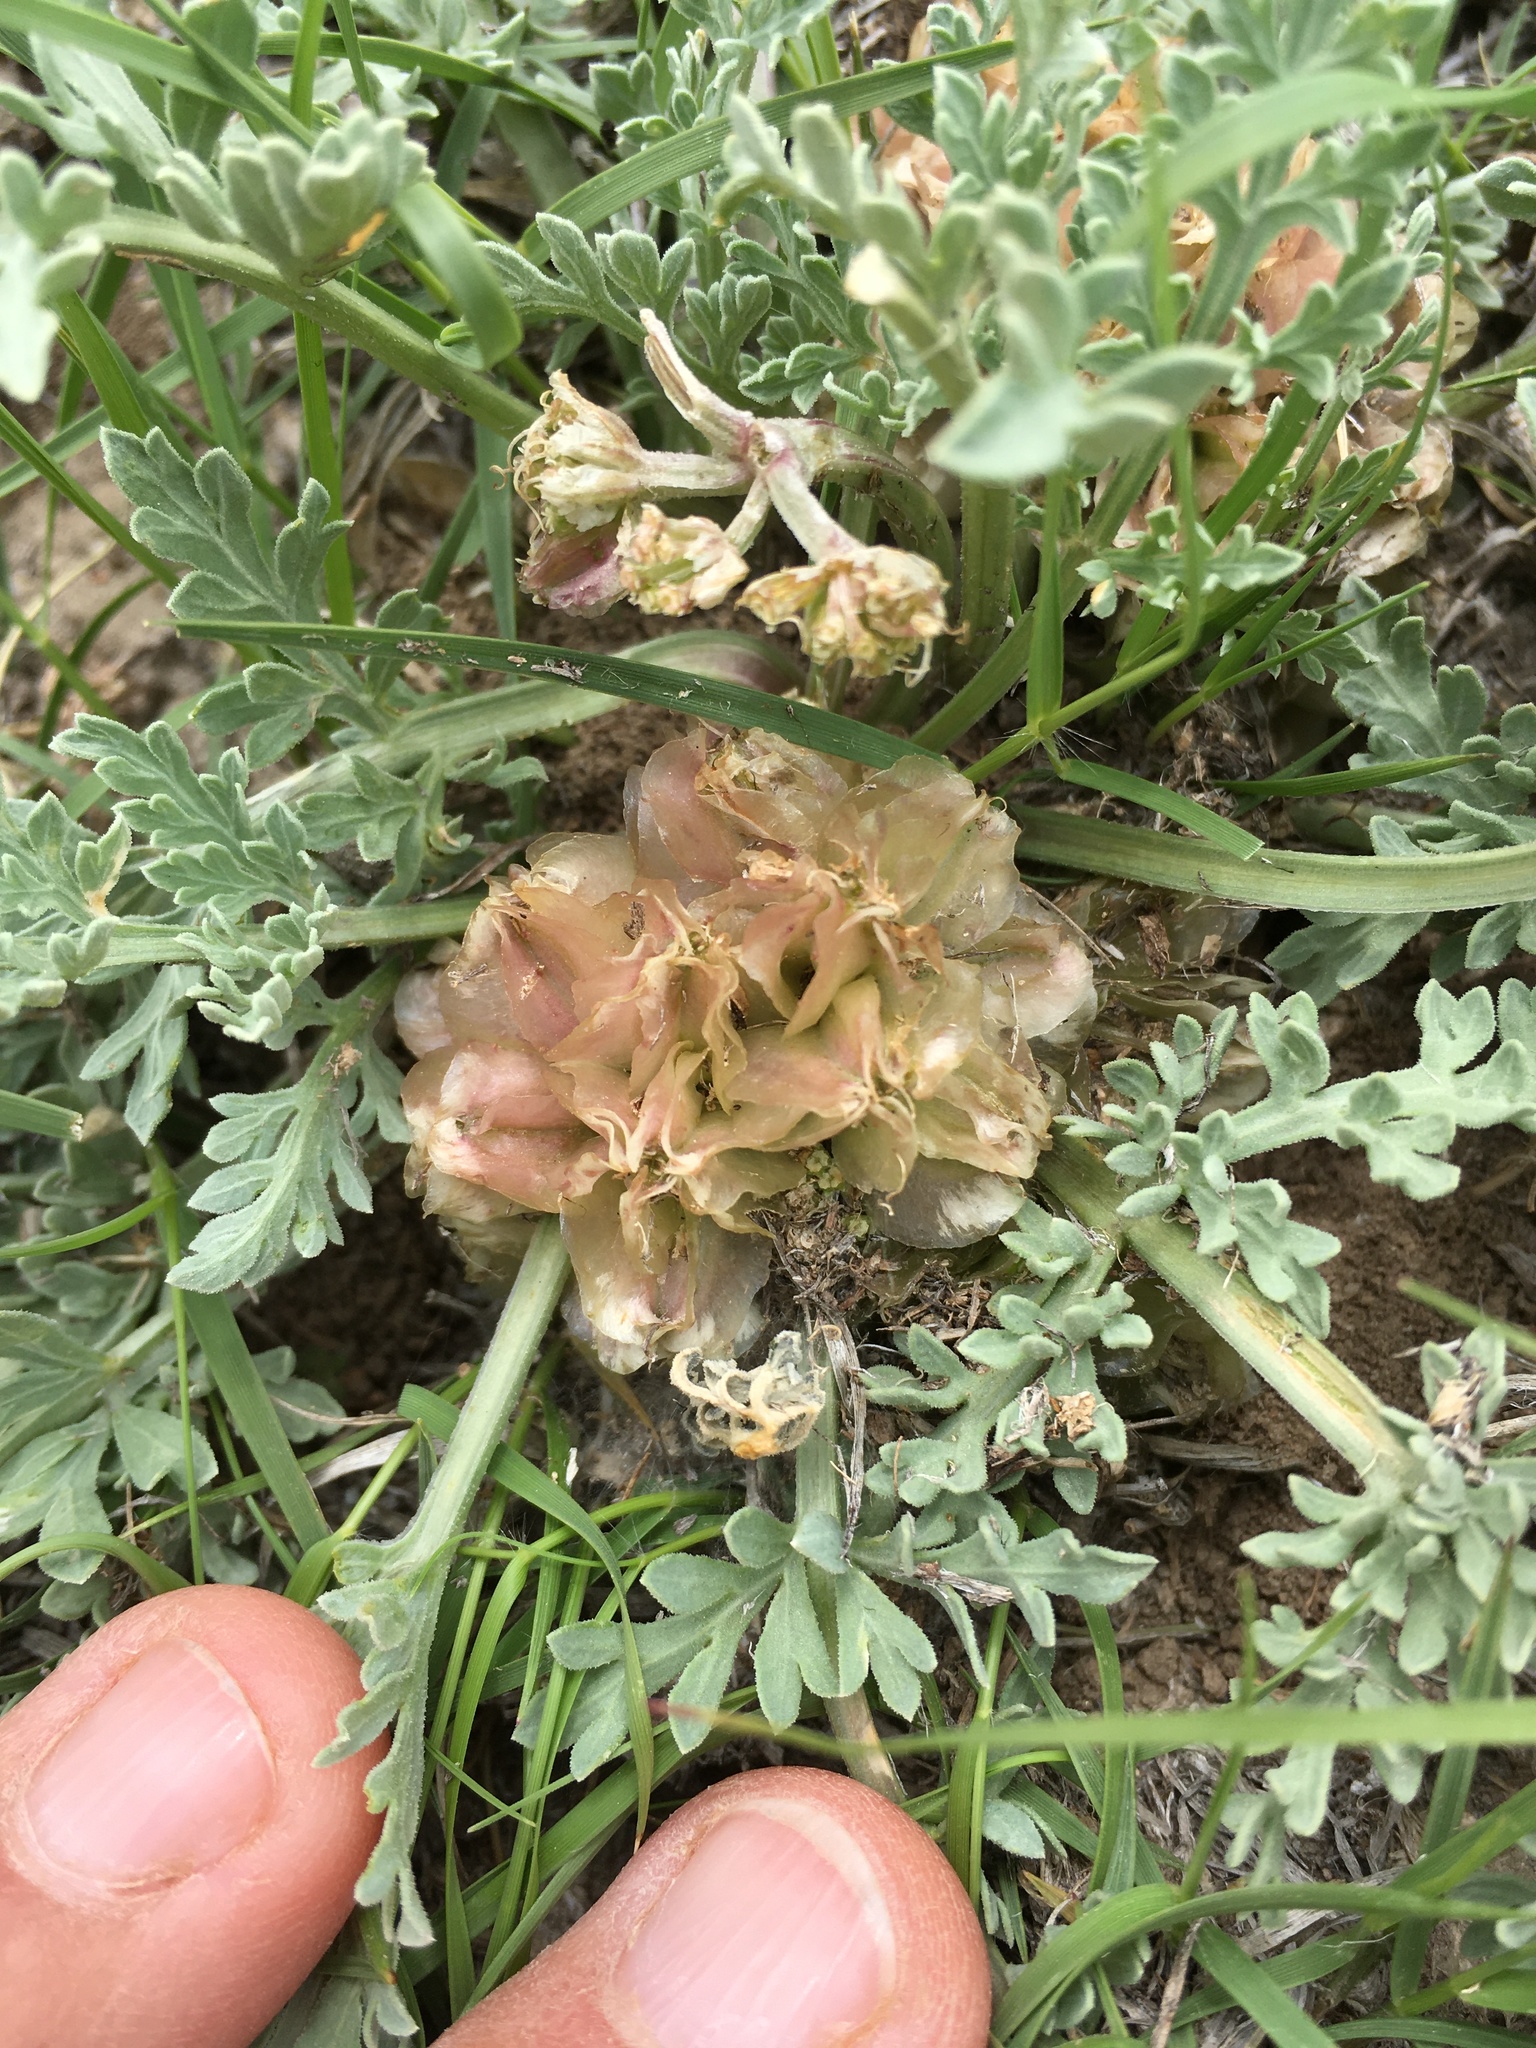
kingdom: Plantae
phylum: Tracheophyta
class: Magnoliopsida
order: Apiales
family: Apiaceae
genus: Vesper
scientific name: Vesper montanus
